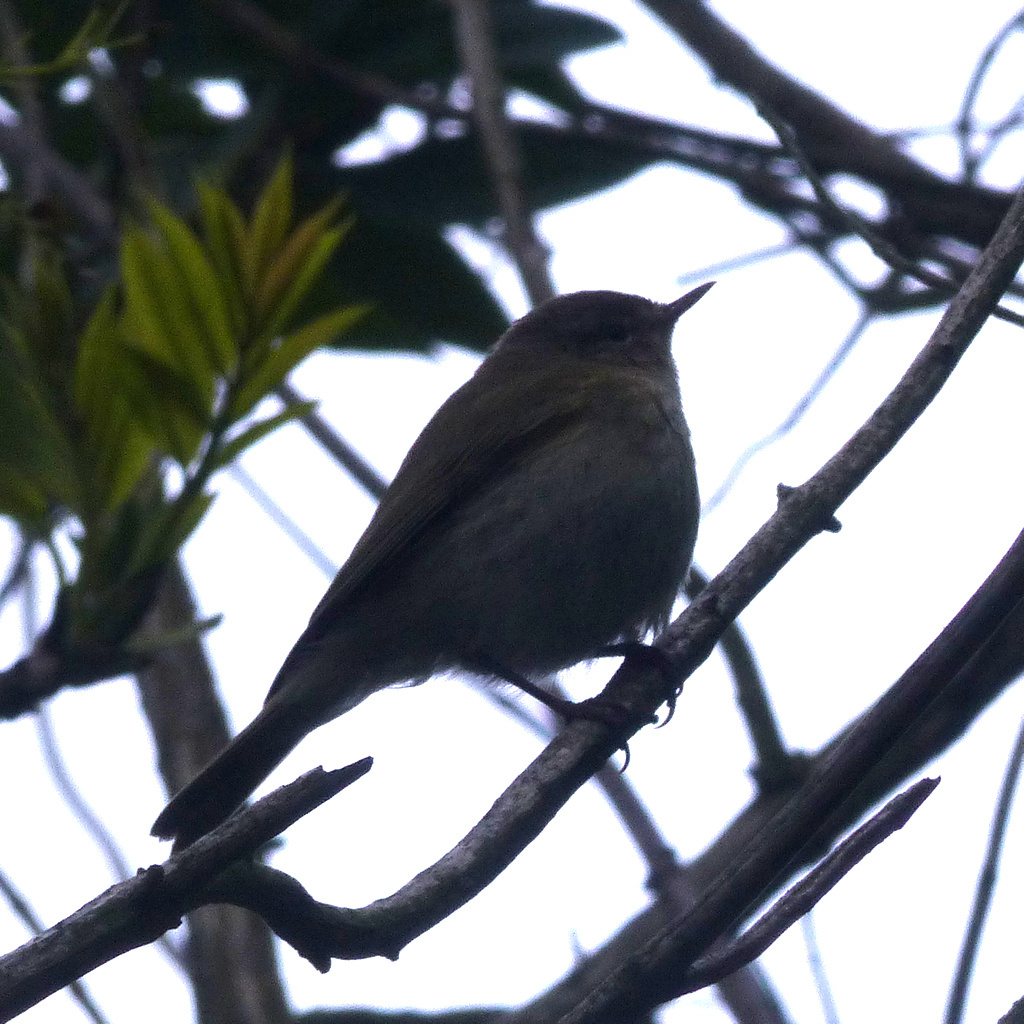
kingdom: Animalia
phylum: Chordata
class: Aves
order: Passeriformes
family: Phylloscopidae
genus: Phylloscopus
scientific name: Phylloscopus collybita
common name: Common chiffchaff
